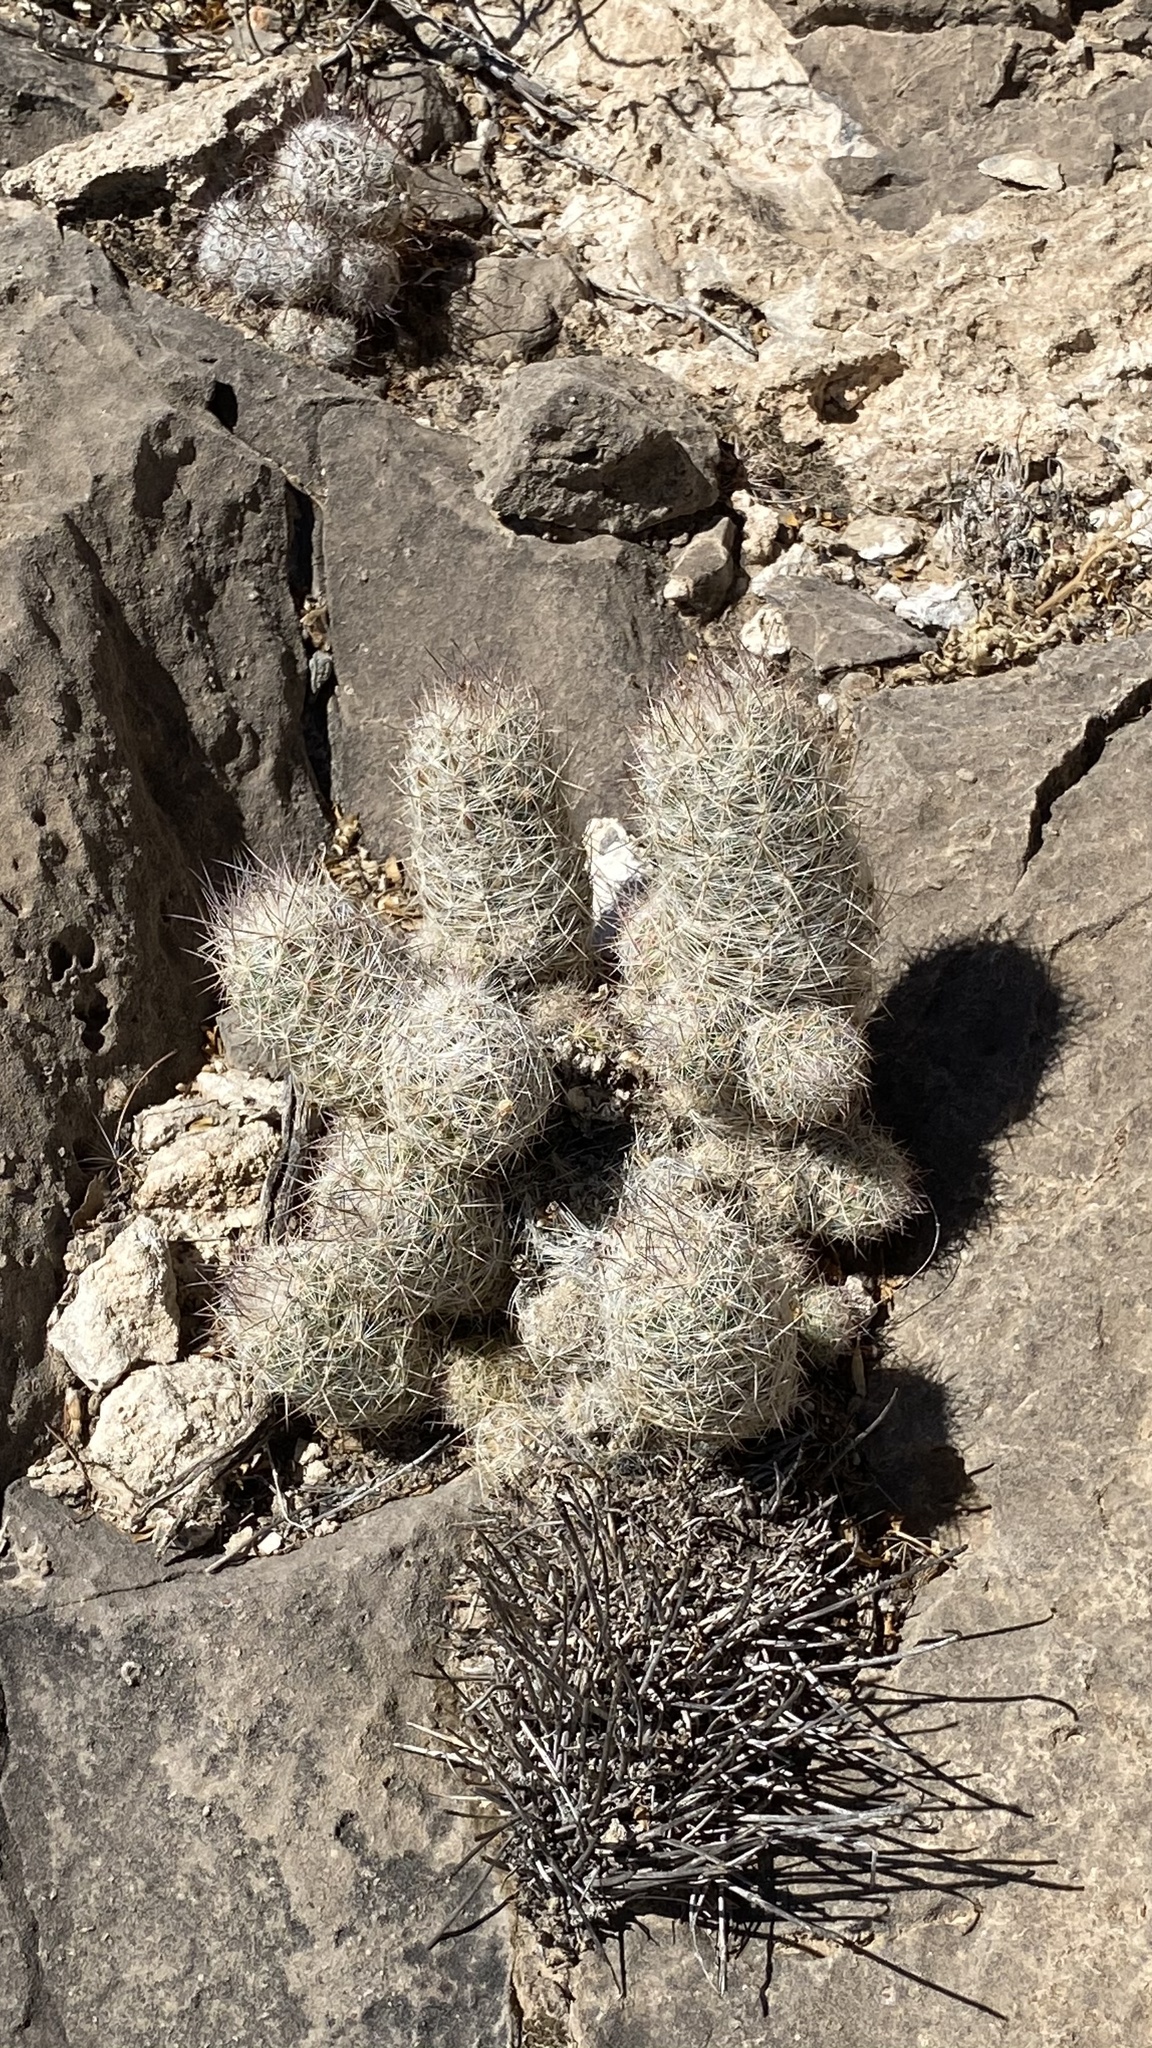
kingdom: Plantae
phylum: Tracheophyta
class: Magnoliopsida
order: Caryophyllales
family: Cactaceae
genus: Pelecyphora
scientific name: Pelecyphora tuberculosa
